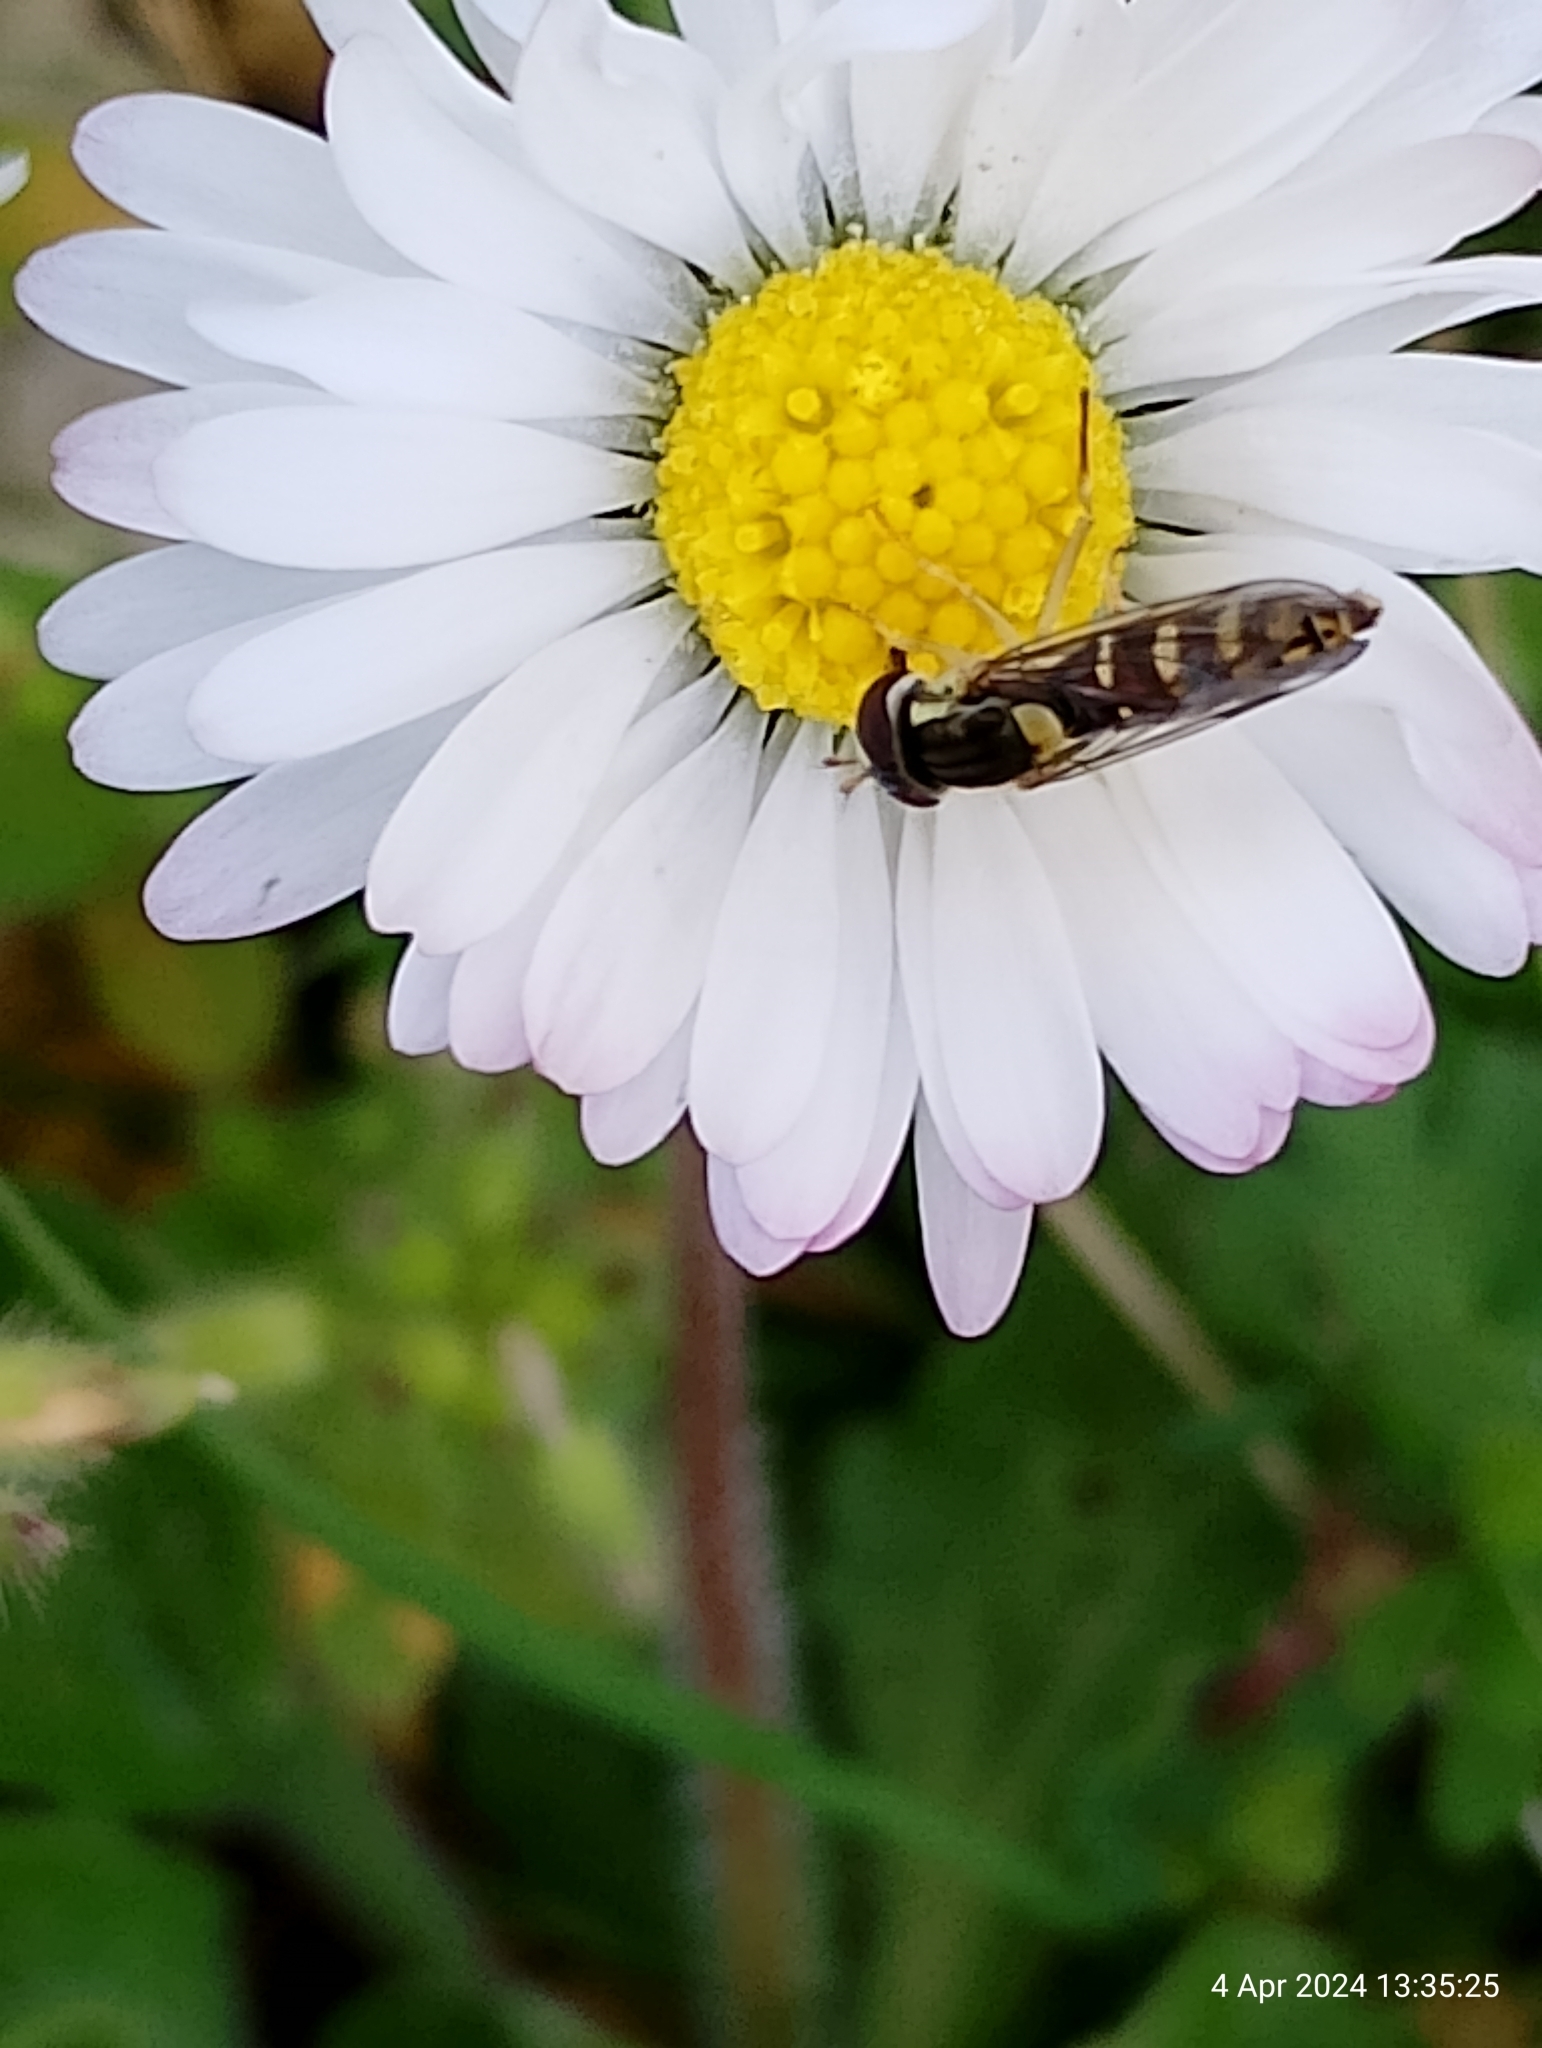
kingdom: Animalia
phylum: Arthropoda
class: Insecta
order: Diptera
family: Syrphidae
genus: Sphaerophoria
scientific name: Sphaerophoria
